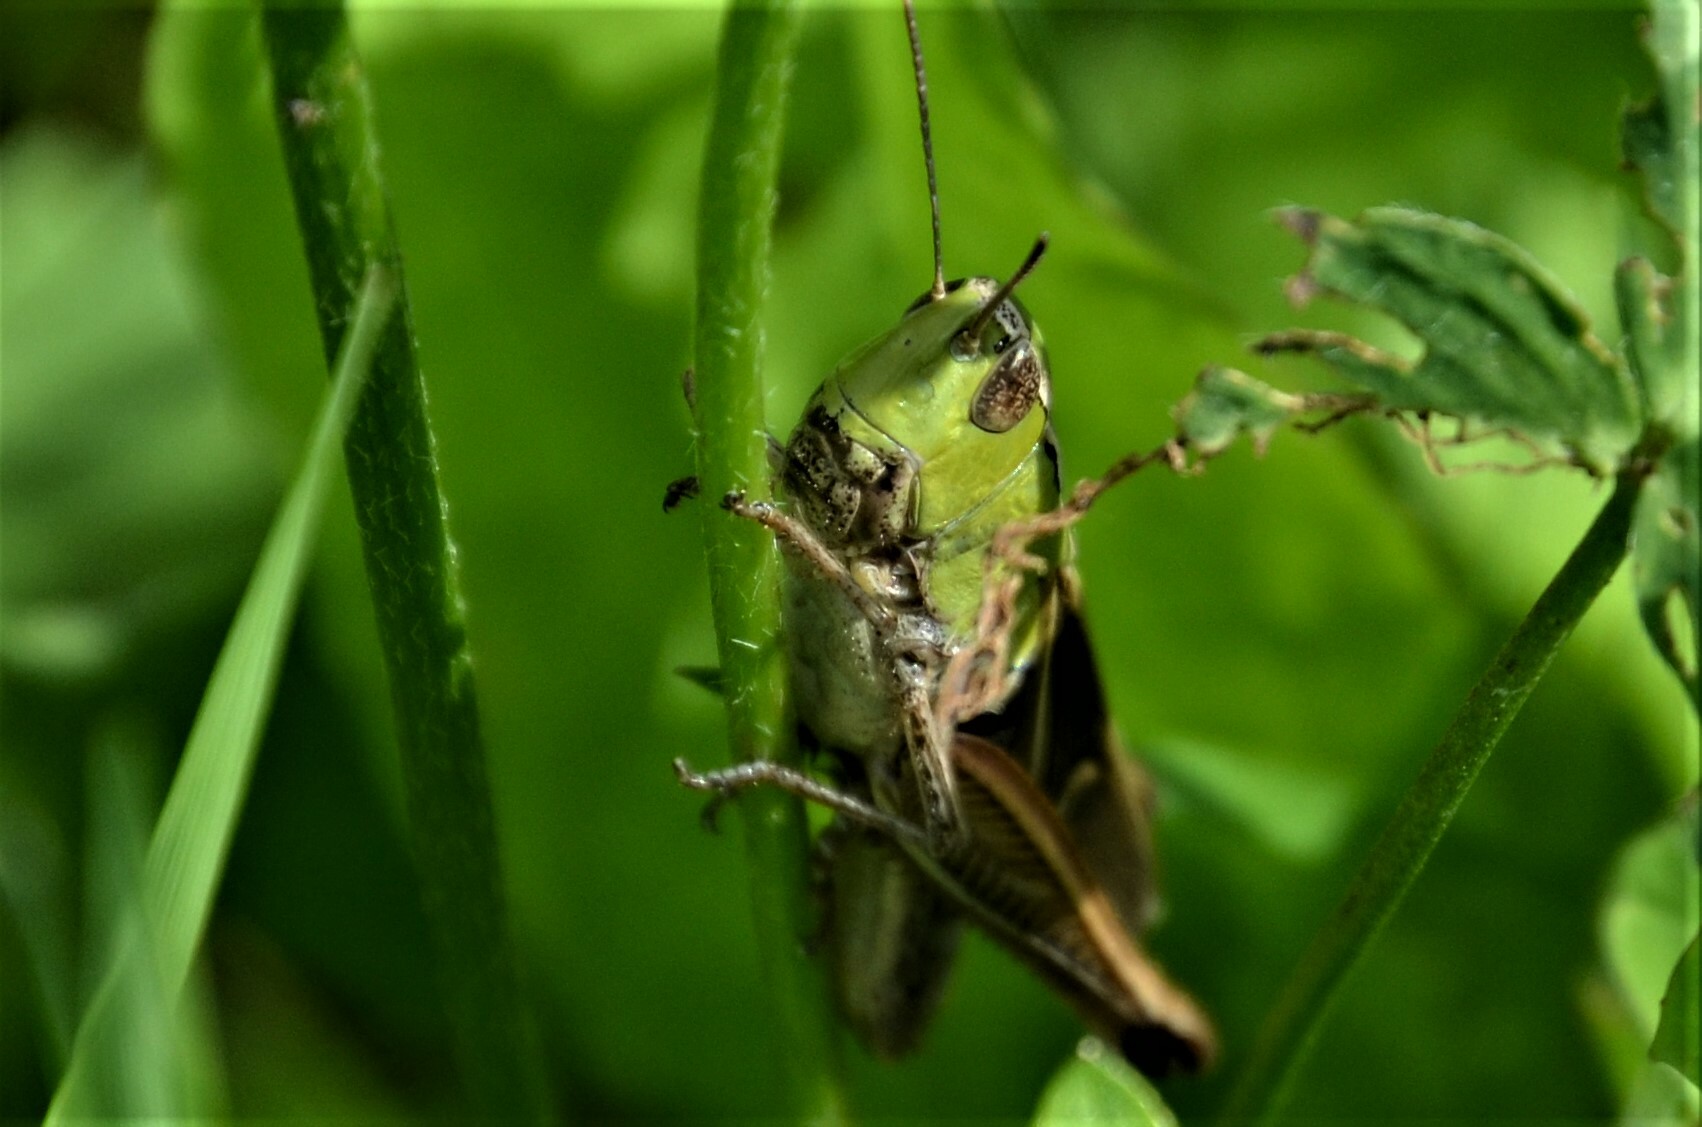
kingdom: Animalia
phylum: Arthropoda
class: Insecta
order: Orthoptera
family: Acrididae
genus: Stenobothrus
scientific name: Stenobothrus lineatus
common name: Stripe-winged grasshopper
